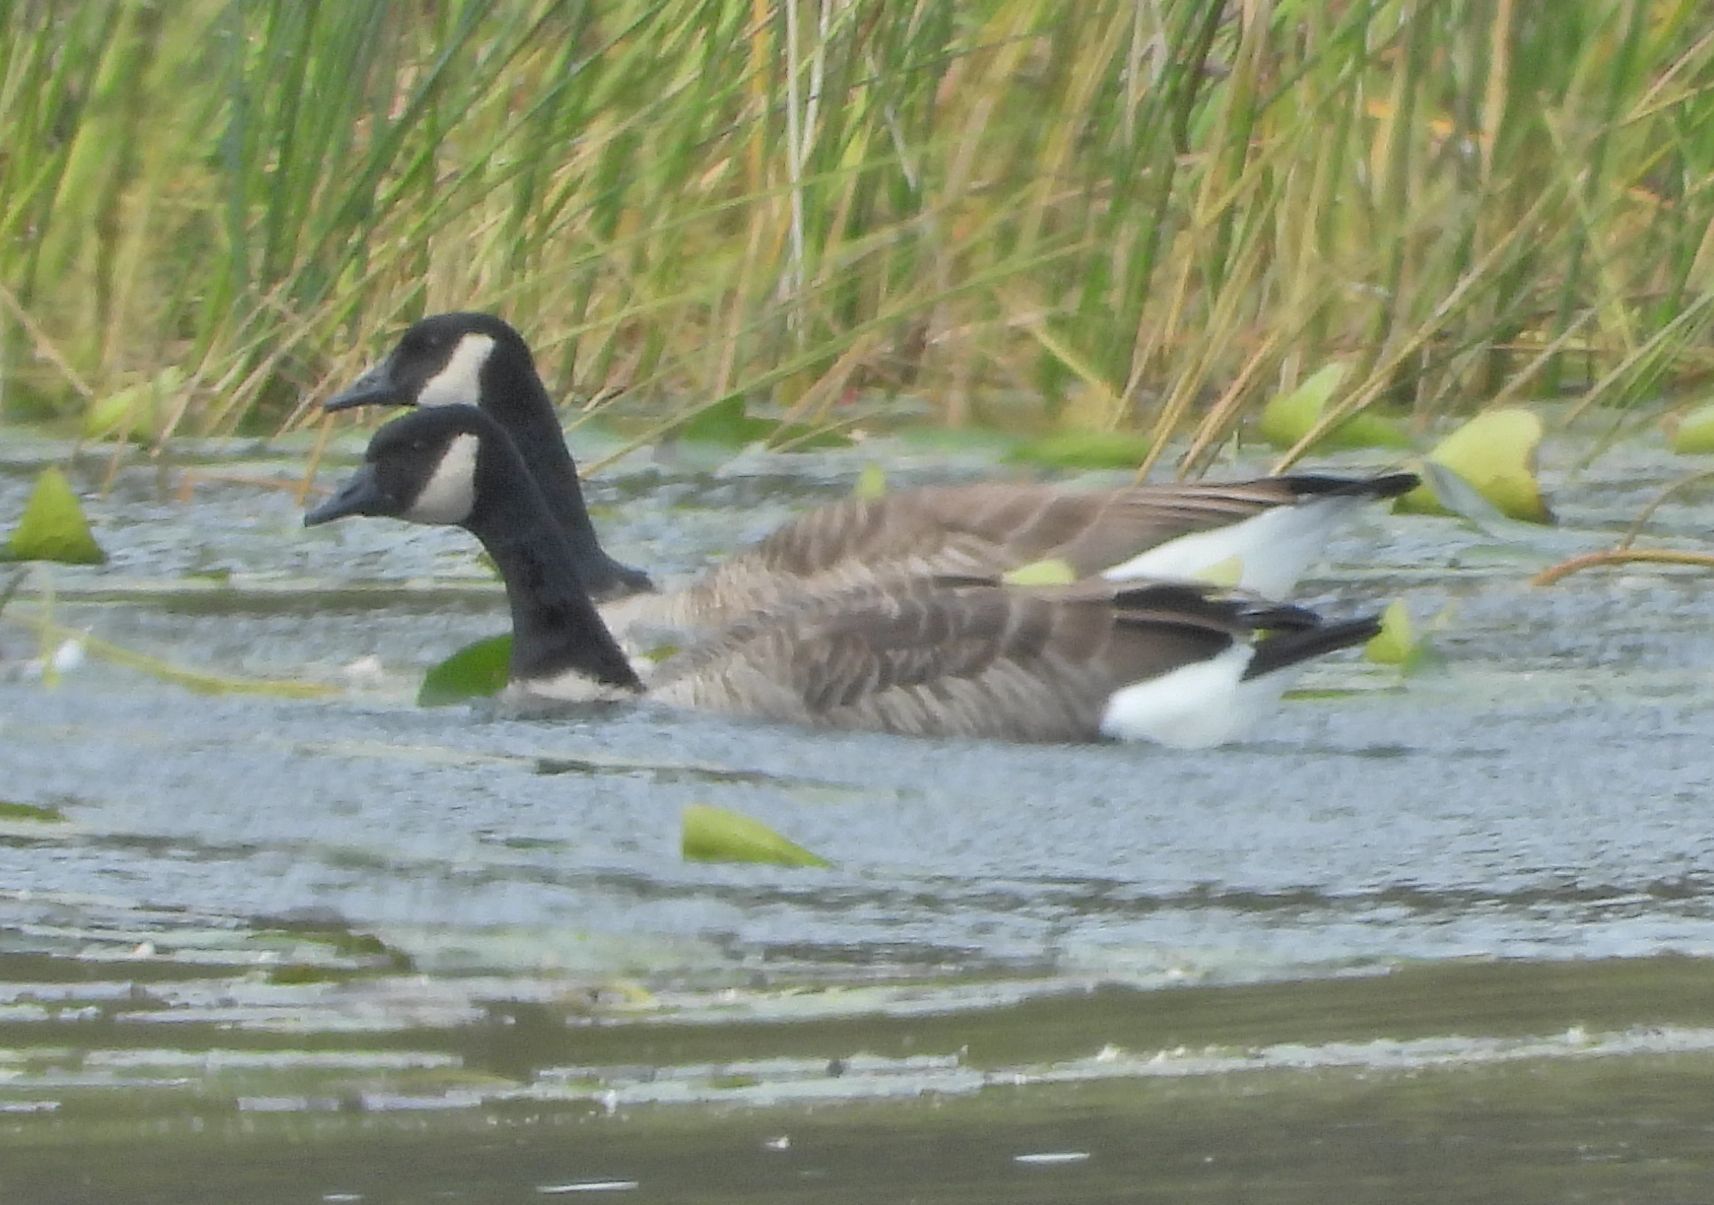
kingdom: Animalia
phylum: Chordata
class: Aves
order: Anseriformes
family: Anatidae
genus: Branta
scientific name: Branta canadensis
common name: Canada goose
